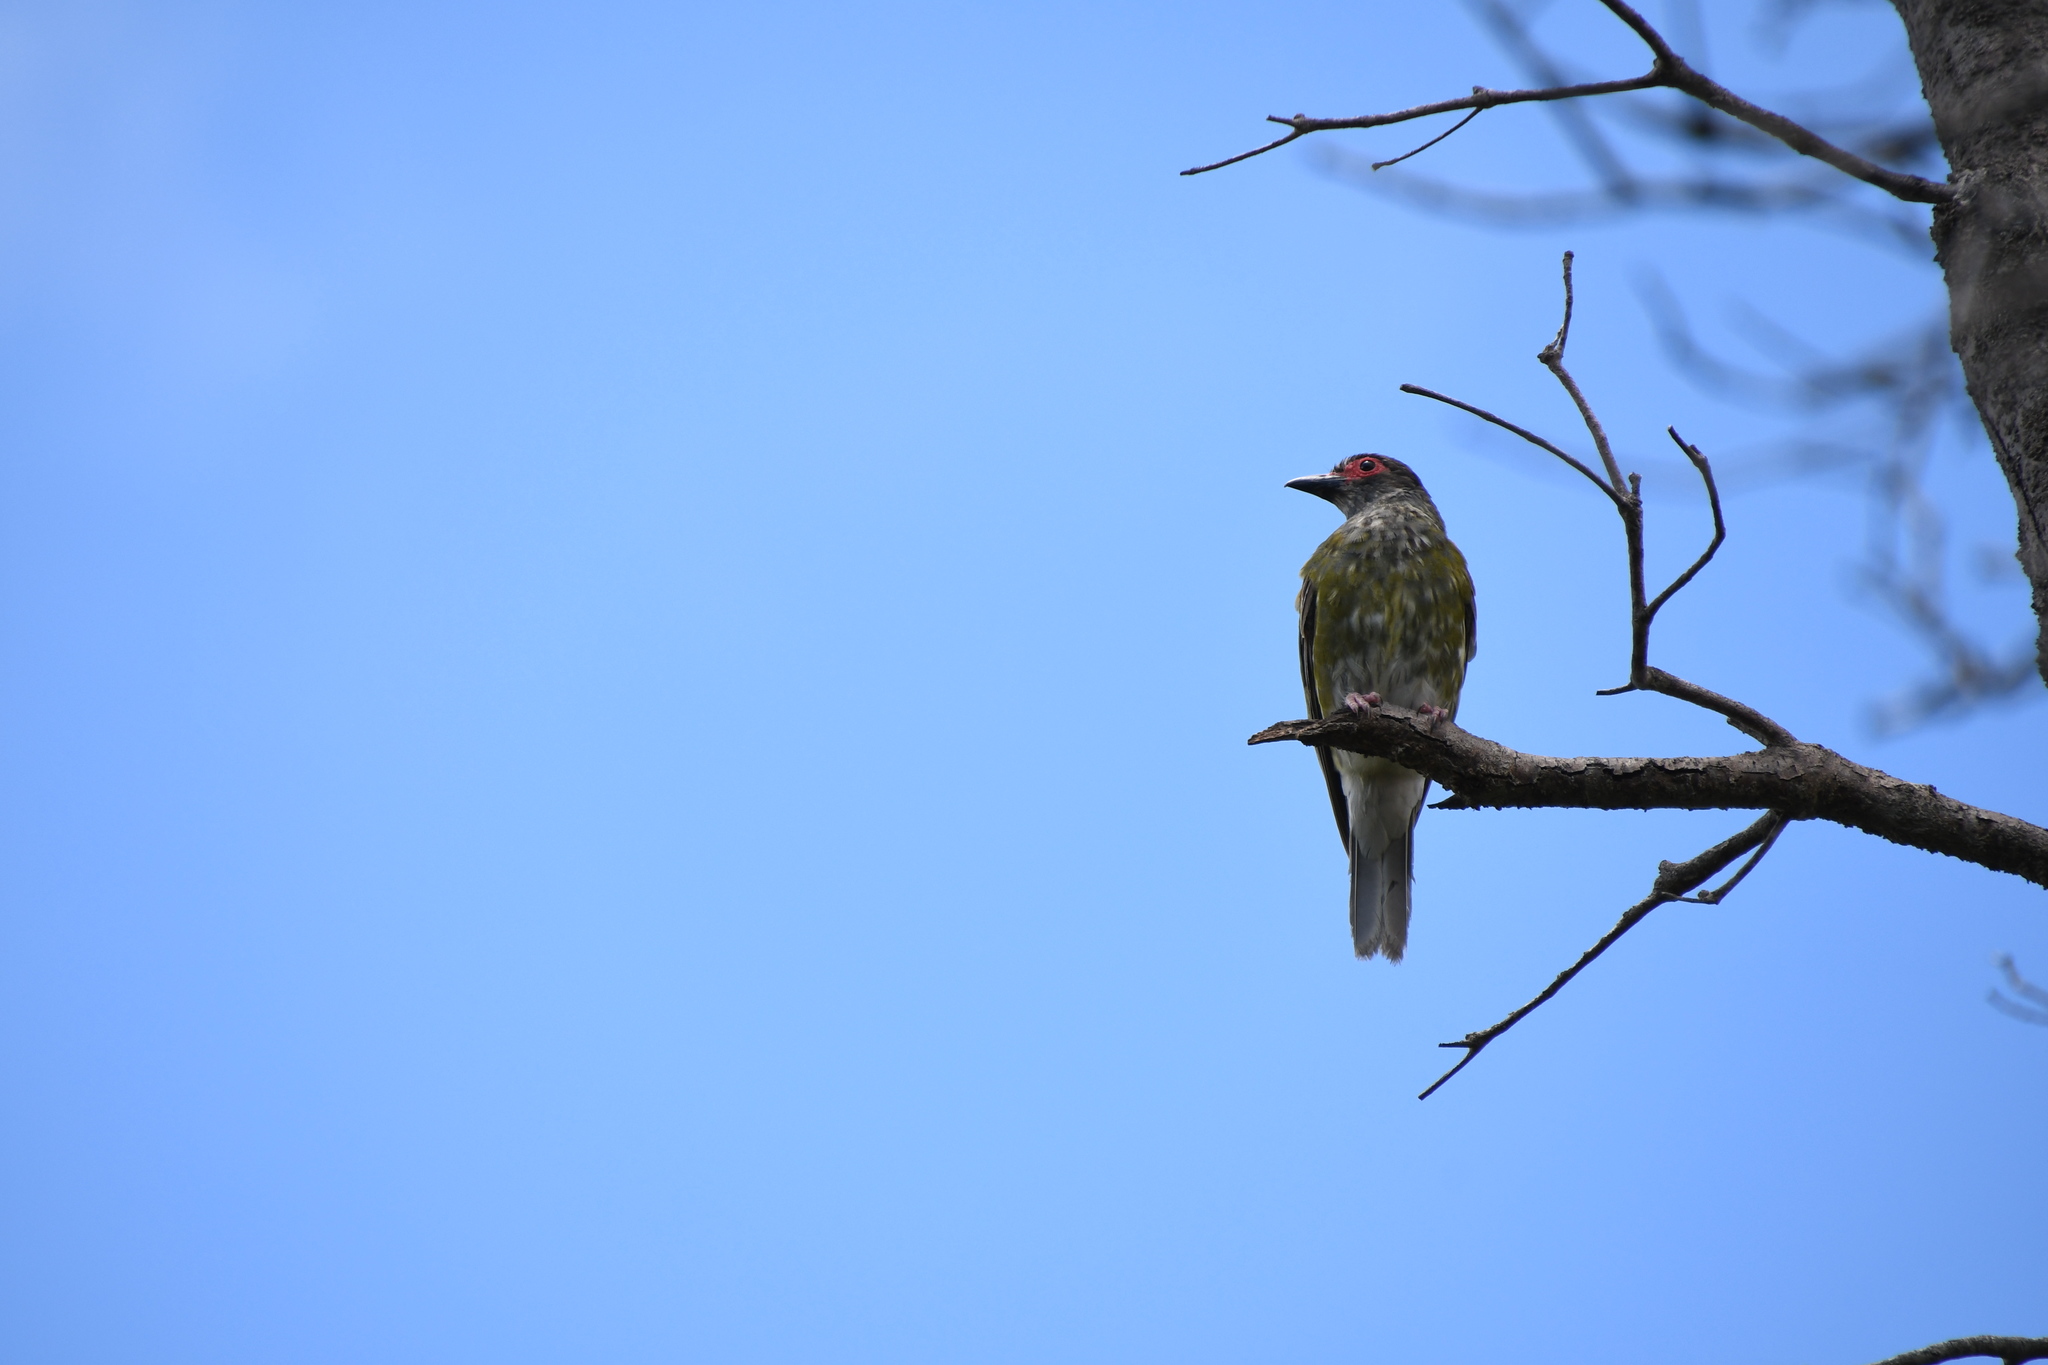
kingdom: Animalia
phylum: Chordata
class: Aves
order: Passeriformes
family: Oriolidae
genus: Sphecotheres
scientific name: Sphecotheres vieilloti
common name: Australasian figbird
